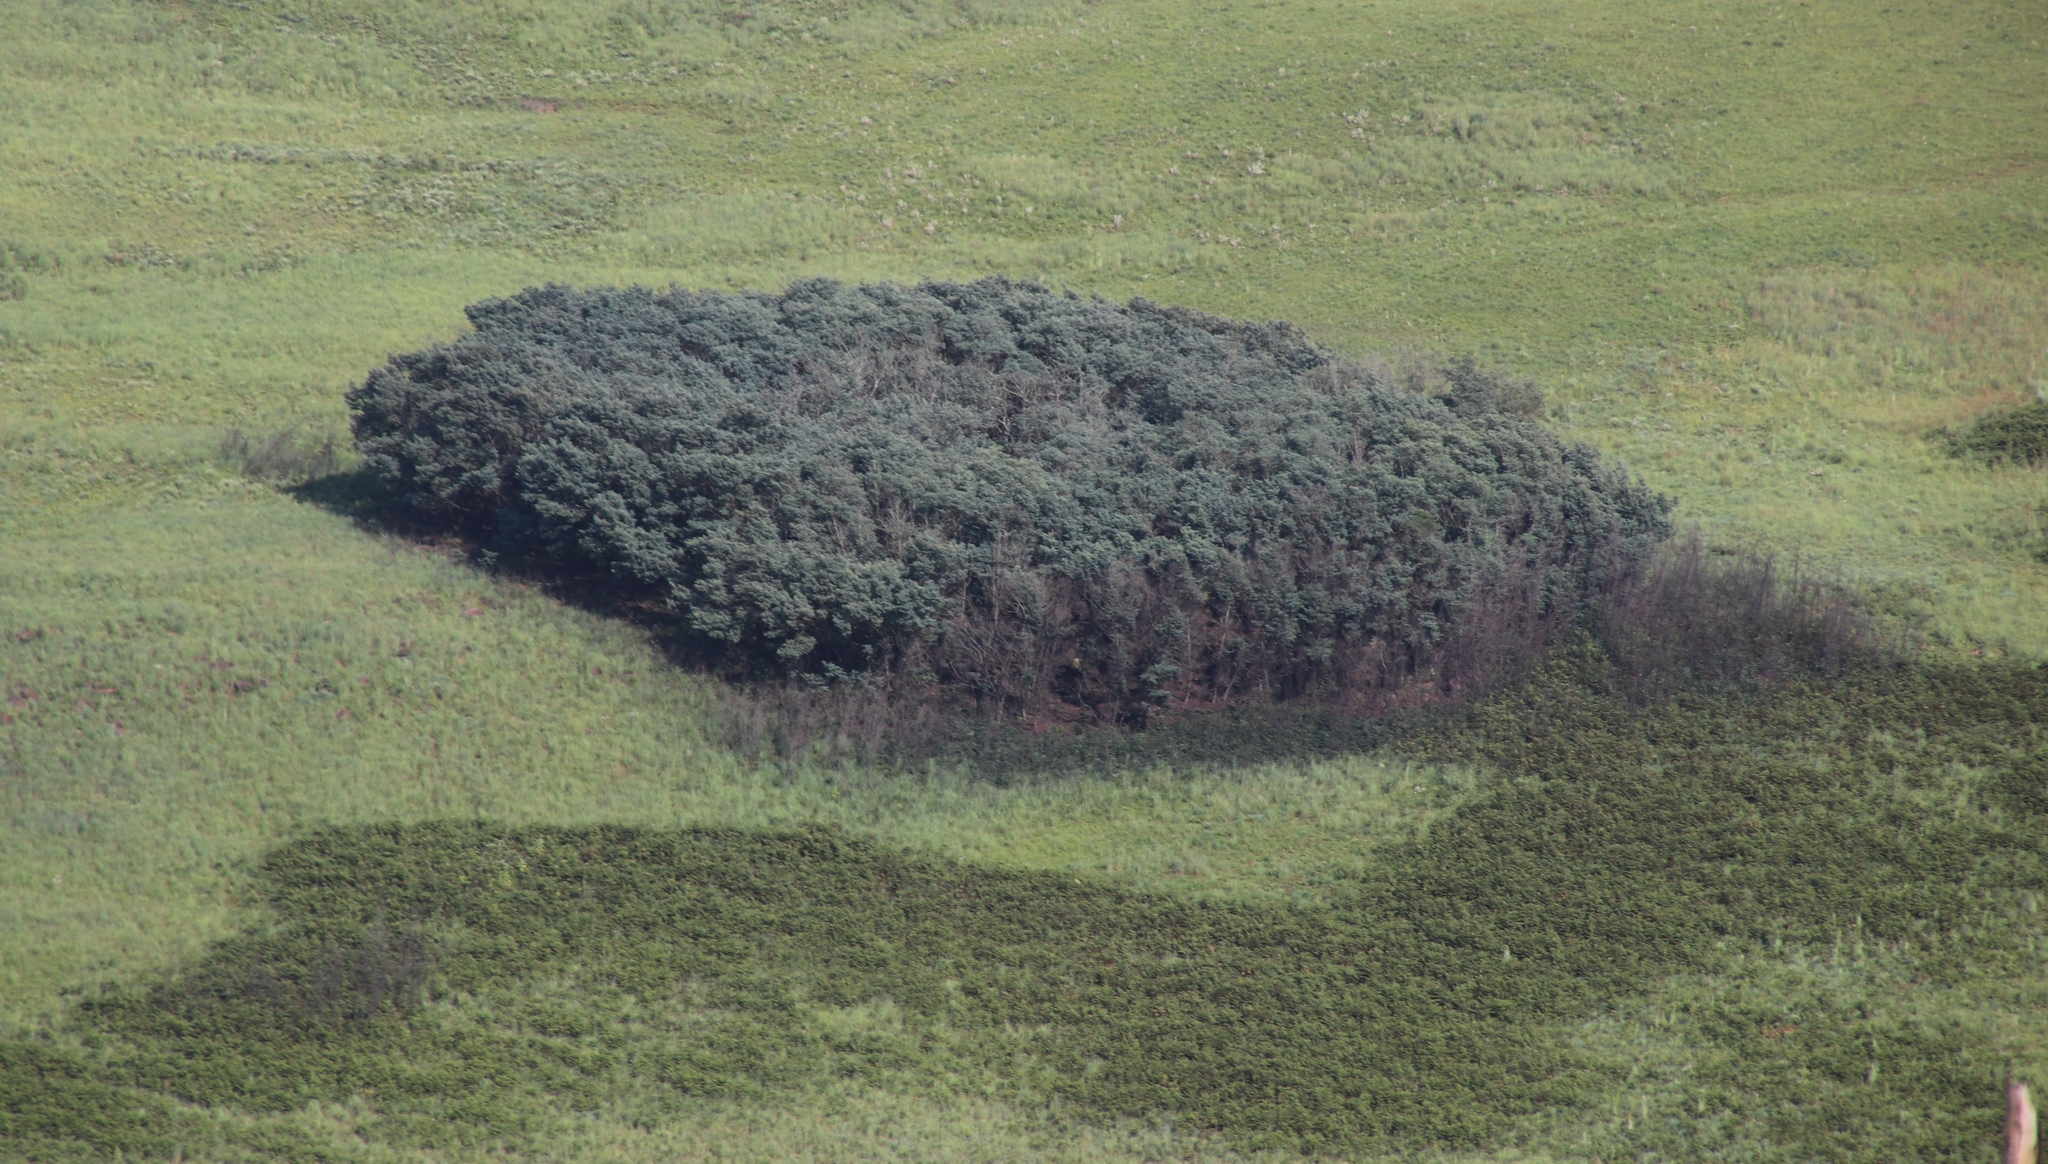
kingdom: Plantae
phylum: Tracheophyta
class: Magnoliopsida
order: Fabales
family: Fabaceae
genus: Acacia
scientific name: Acacia dealbata
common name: Silver wattle
